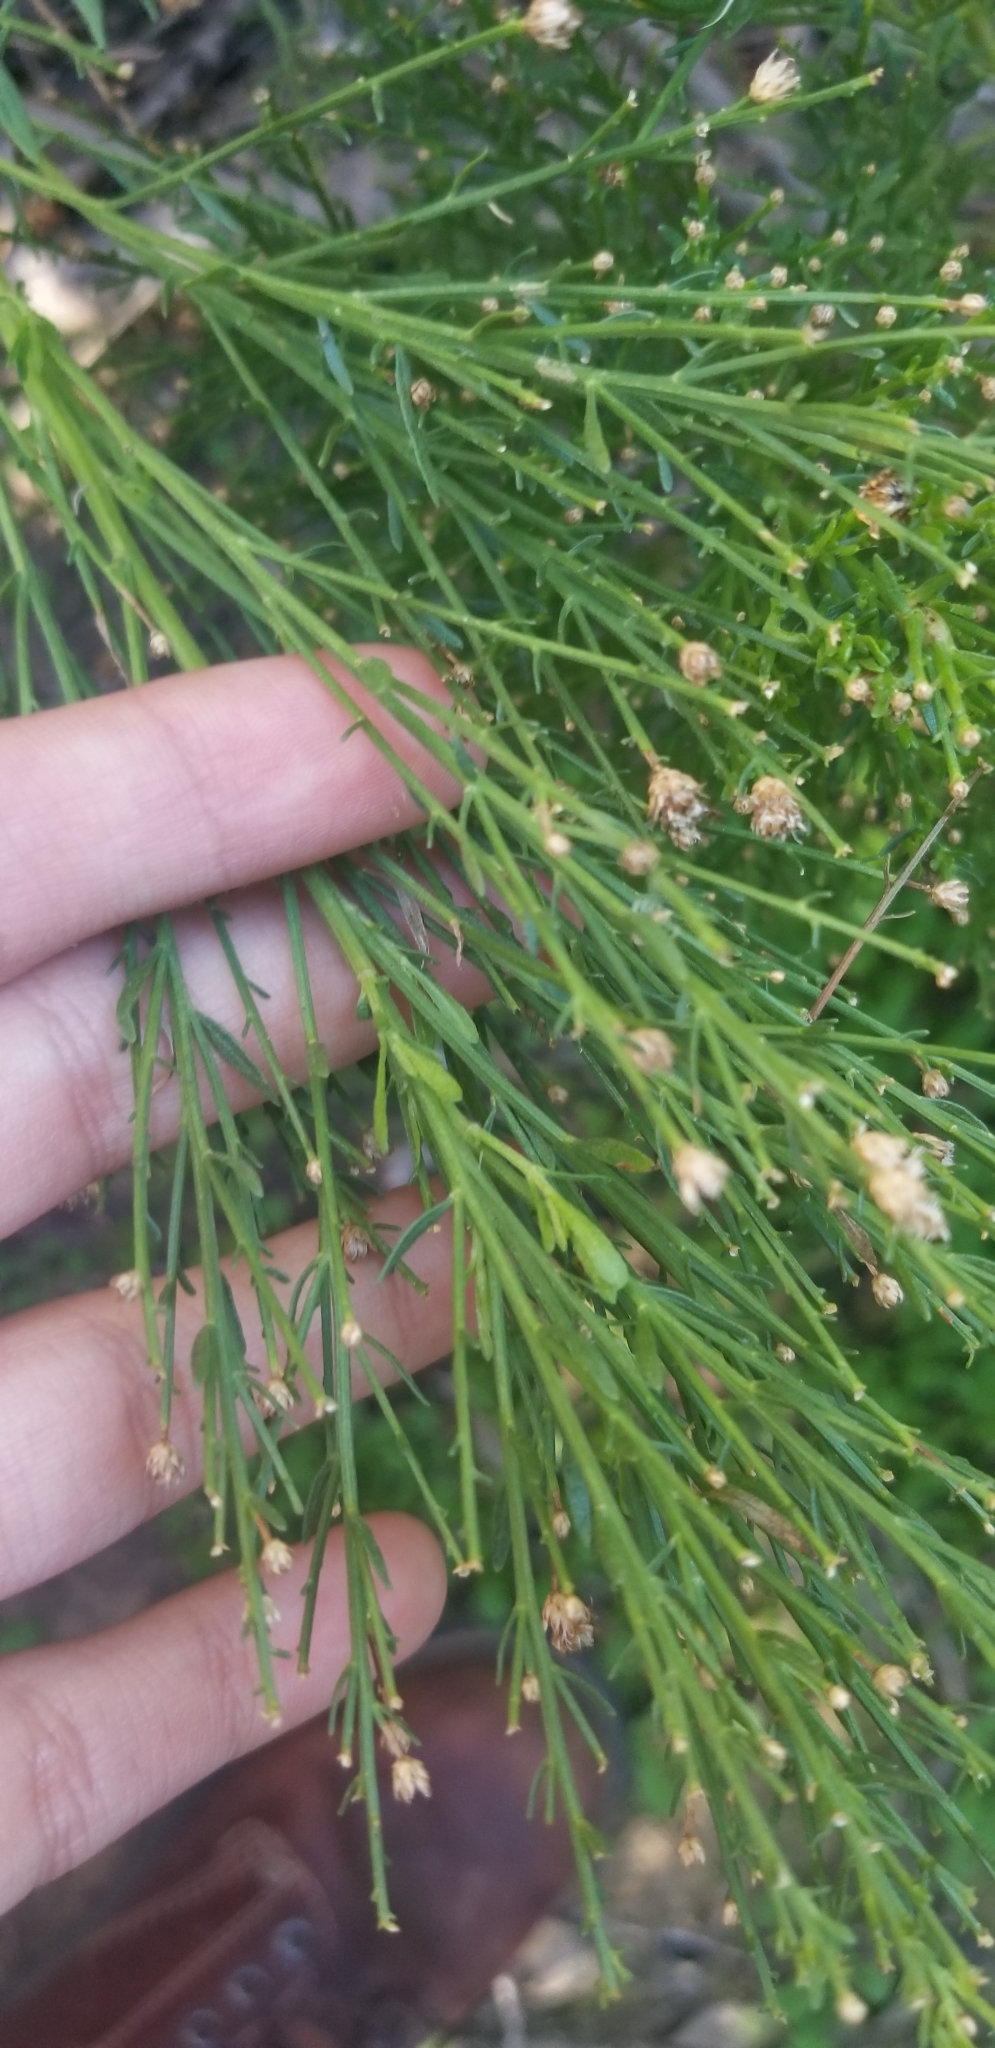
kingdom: Plantae
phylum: Tracheophyta
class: Magnoliopsida
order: Asterales
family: Asteraceae
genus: Baccharis
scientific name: Baccharis sarothroides
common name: Desert-broom
